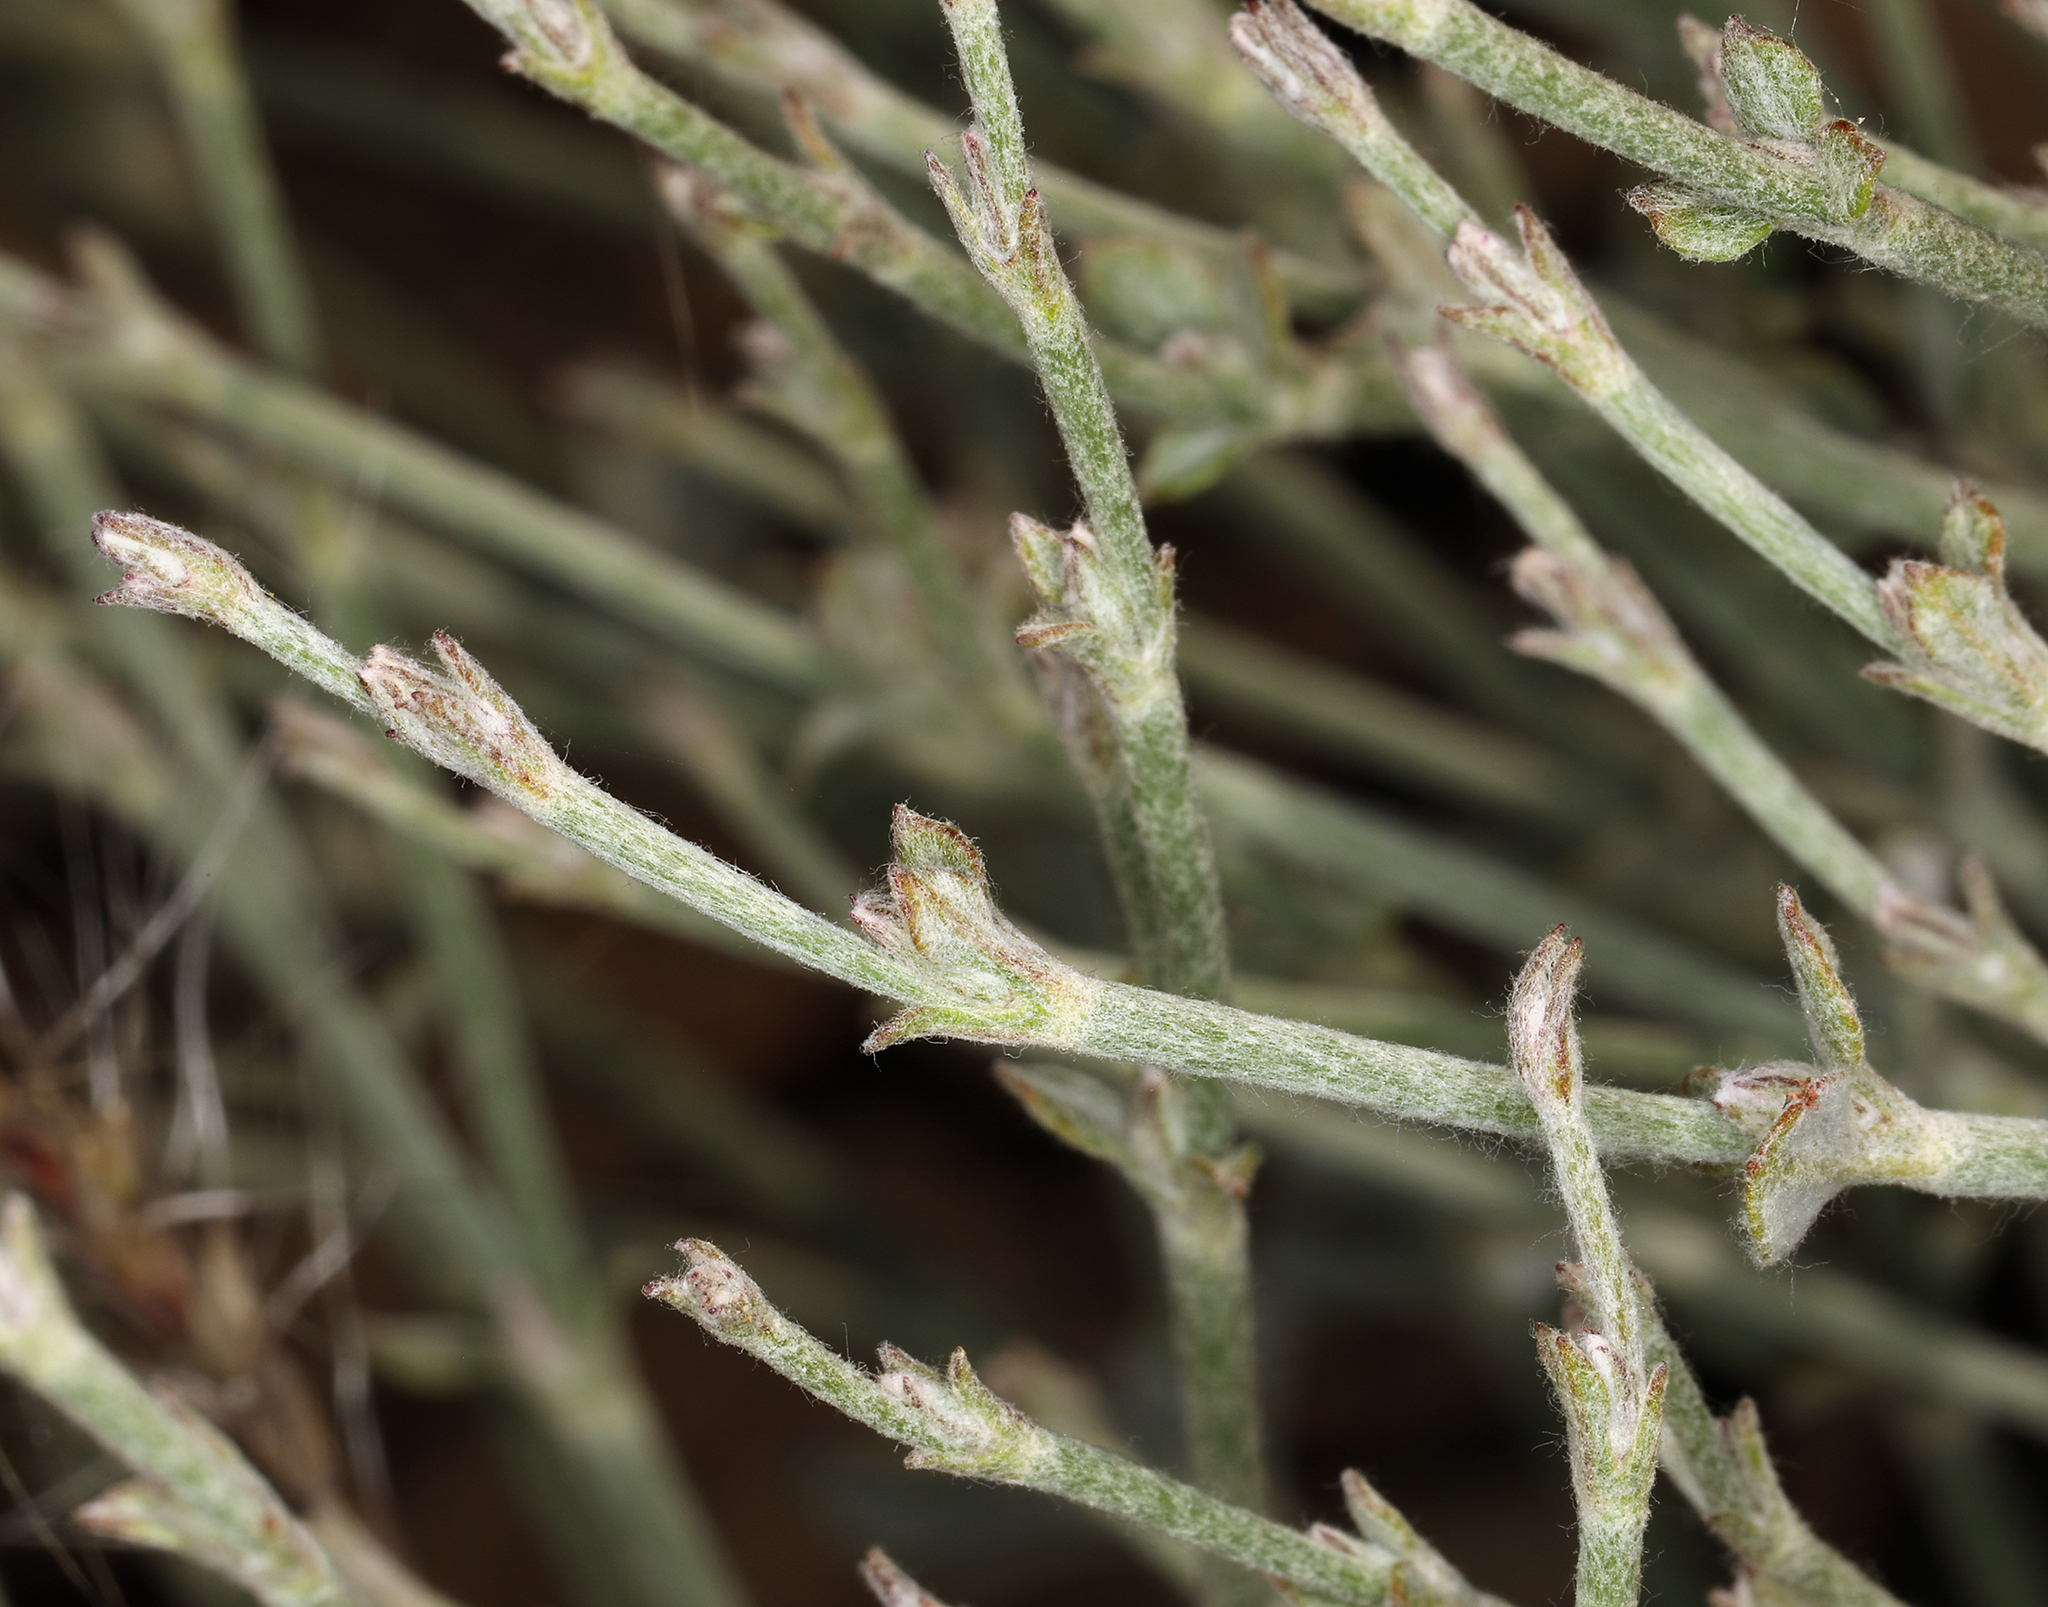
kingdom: Plantae
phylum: Tracheophyta
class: Magnoliopsida
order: Caryophyllales
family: Polygonaceae
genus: Eriogonum
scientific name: Eriogonum panamintense
